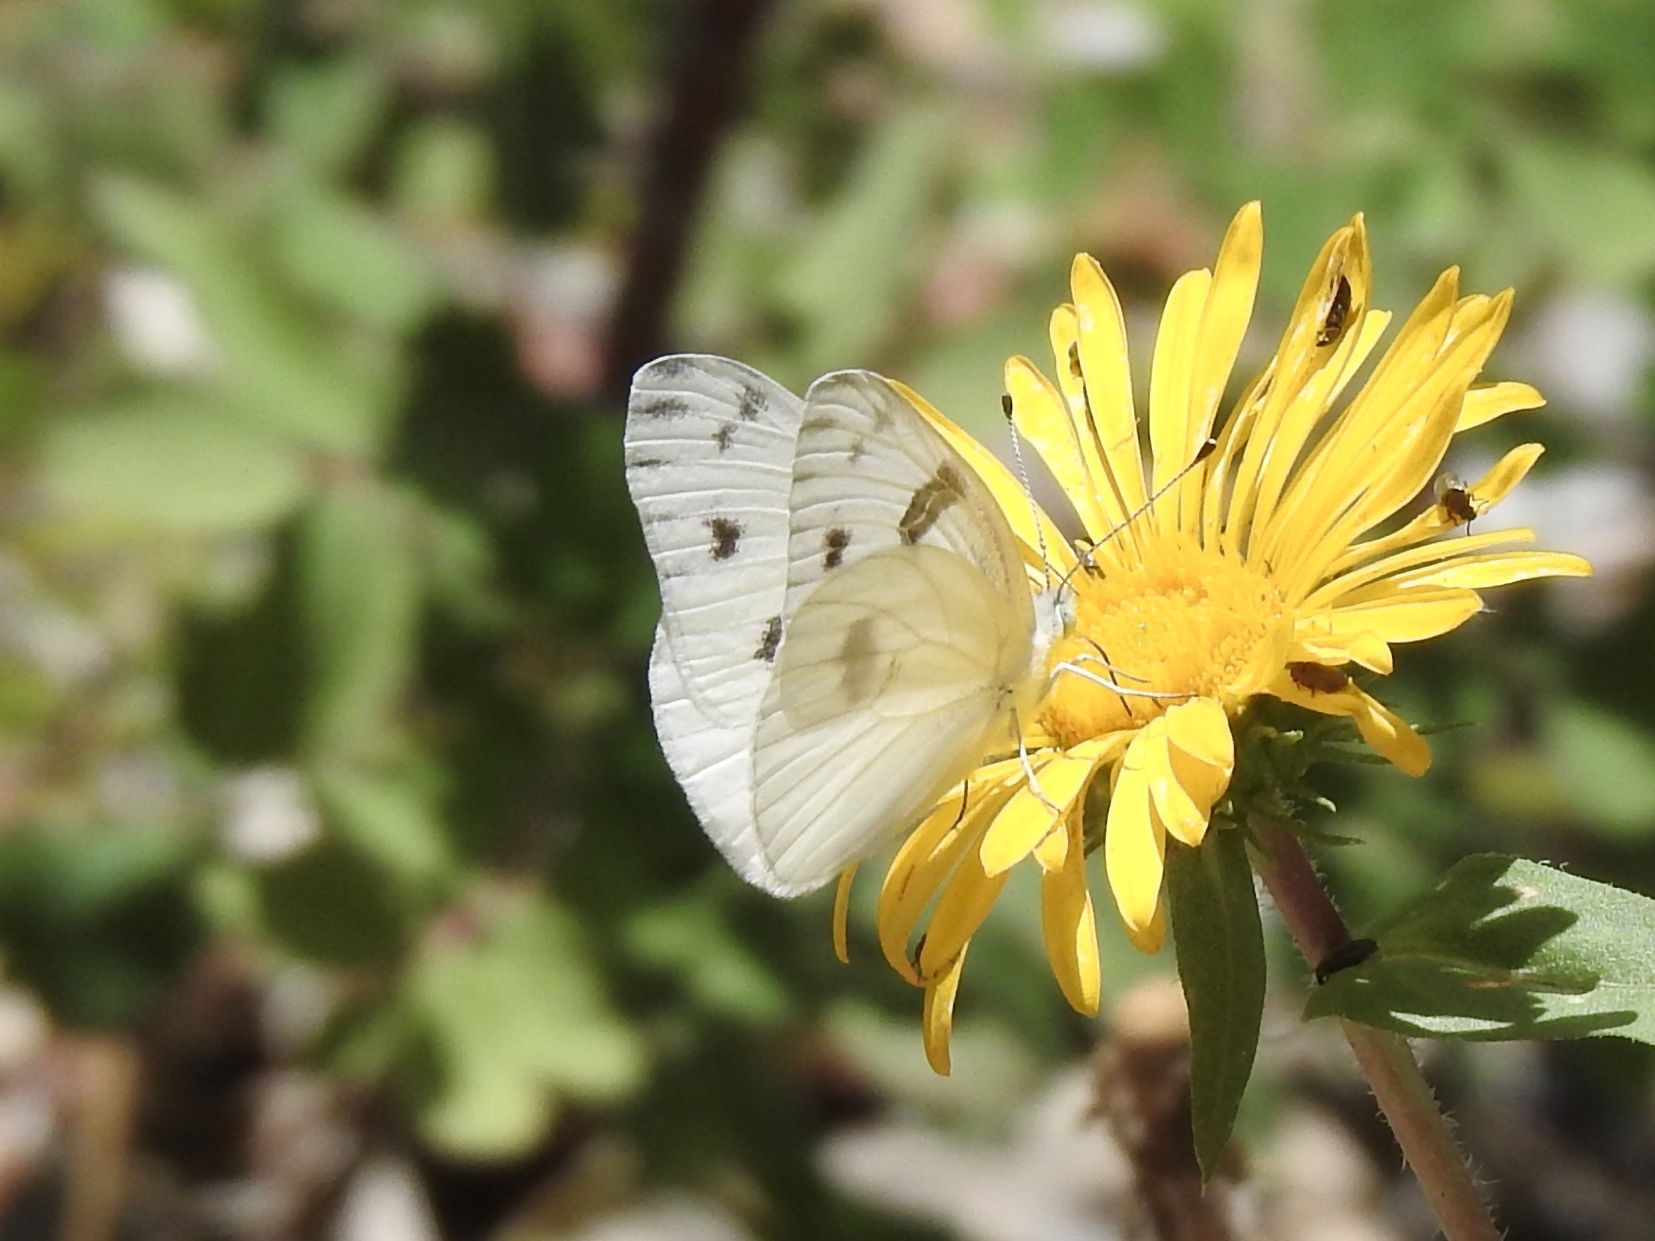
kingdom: Animalia
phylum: Arthropoda
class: Insecta
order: Lepidoptera
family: Pieridae
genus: Pontia
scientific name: Pontia protodice
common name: Checkered white
